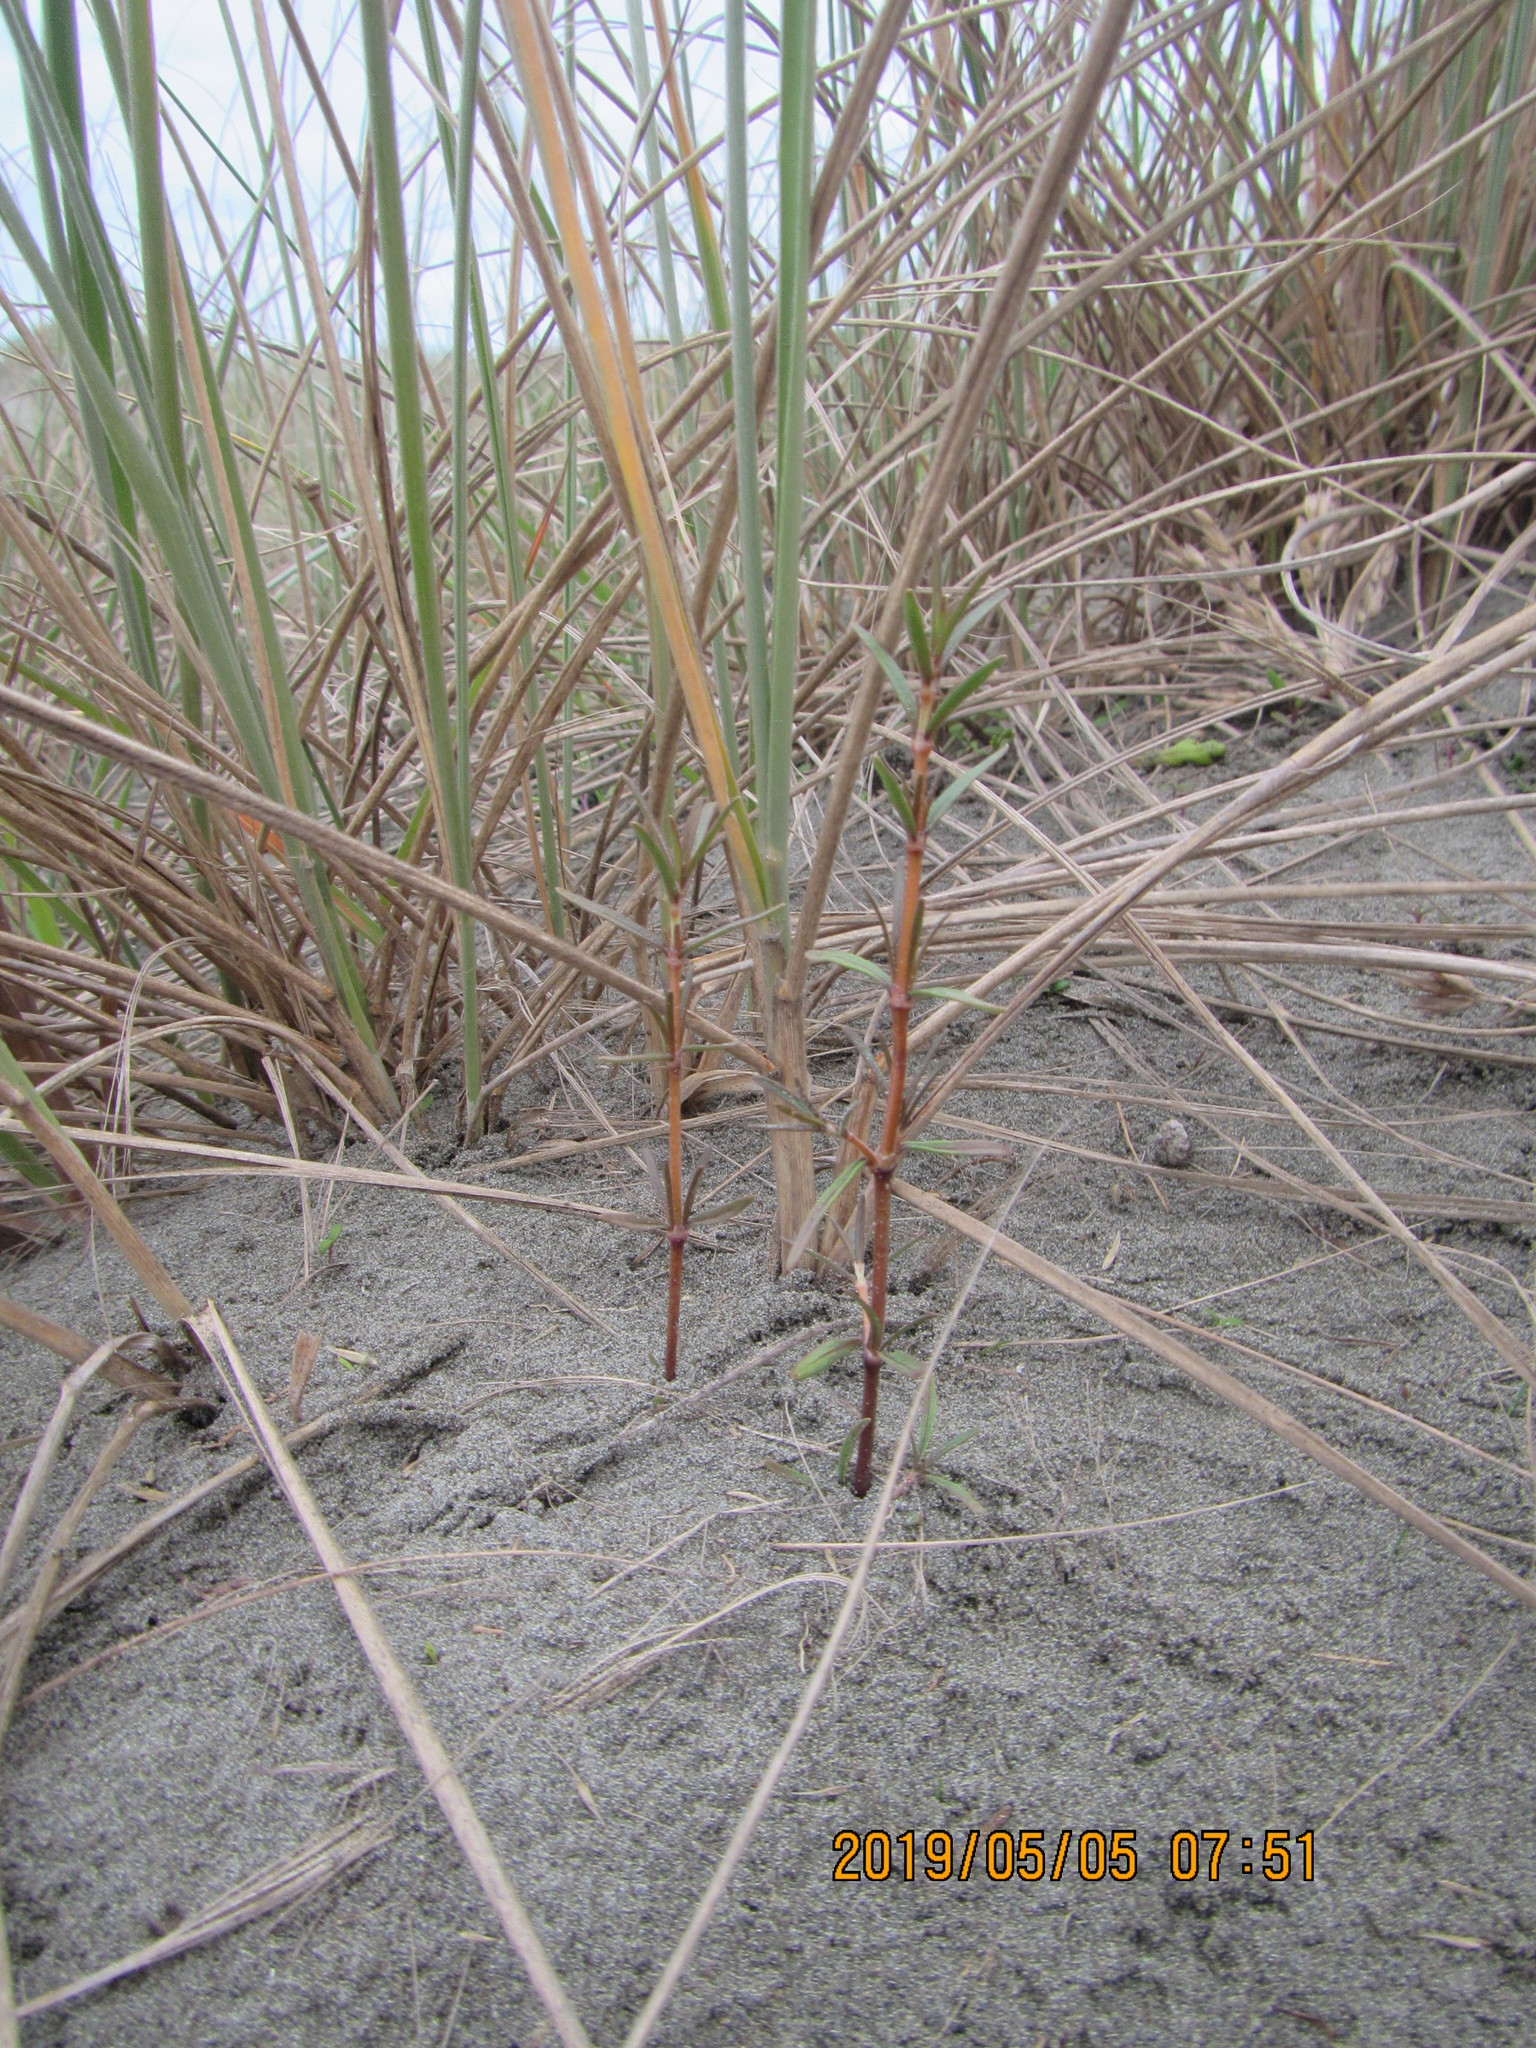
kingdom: Plantae
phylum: Tracheophyta
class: Magnoliopsida
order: Gentianales
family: Rubiaceae
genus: Coprosma
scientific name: Coprosma acerosa
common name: Sand coprosma
